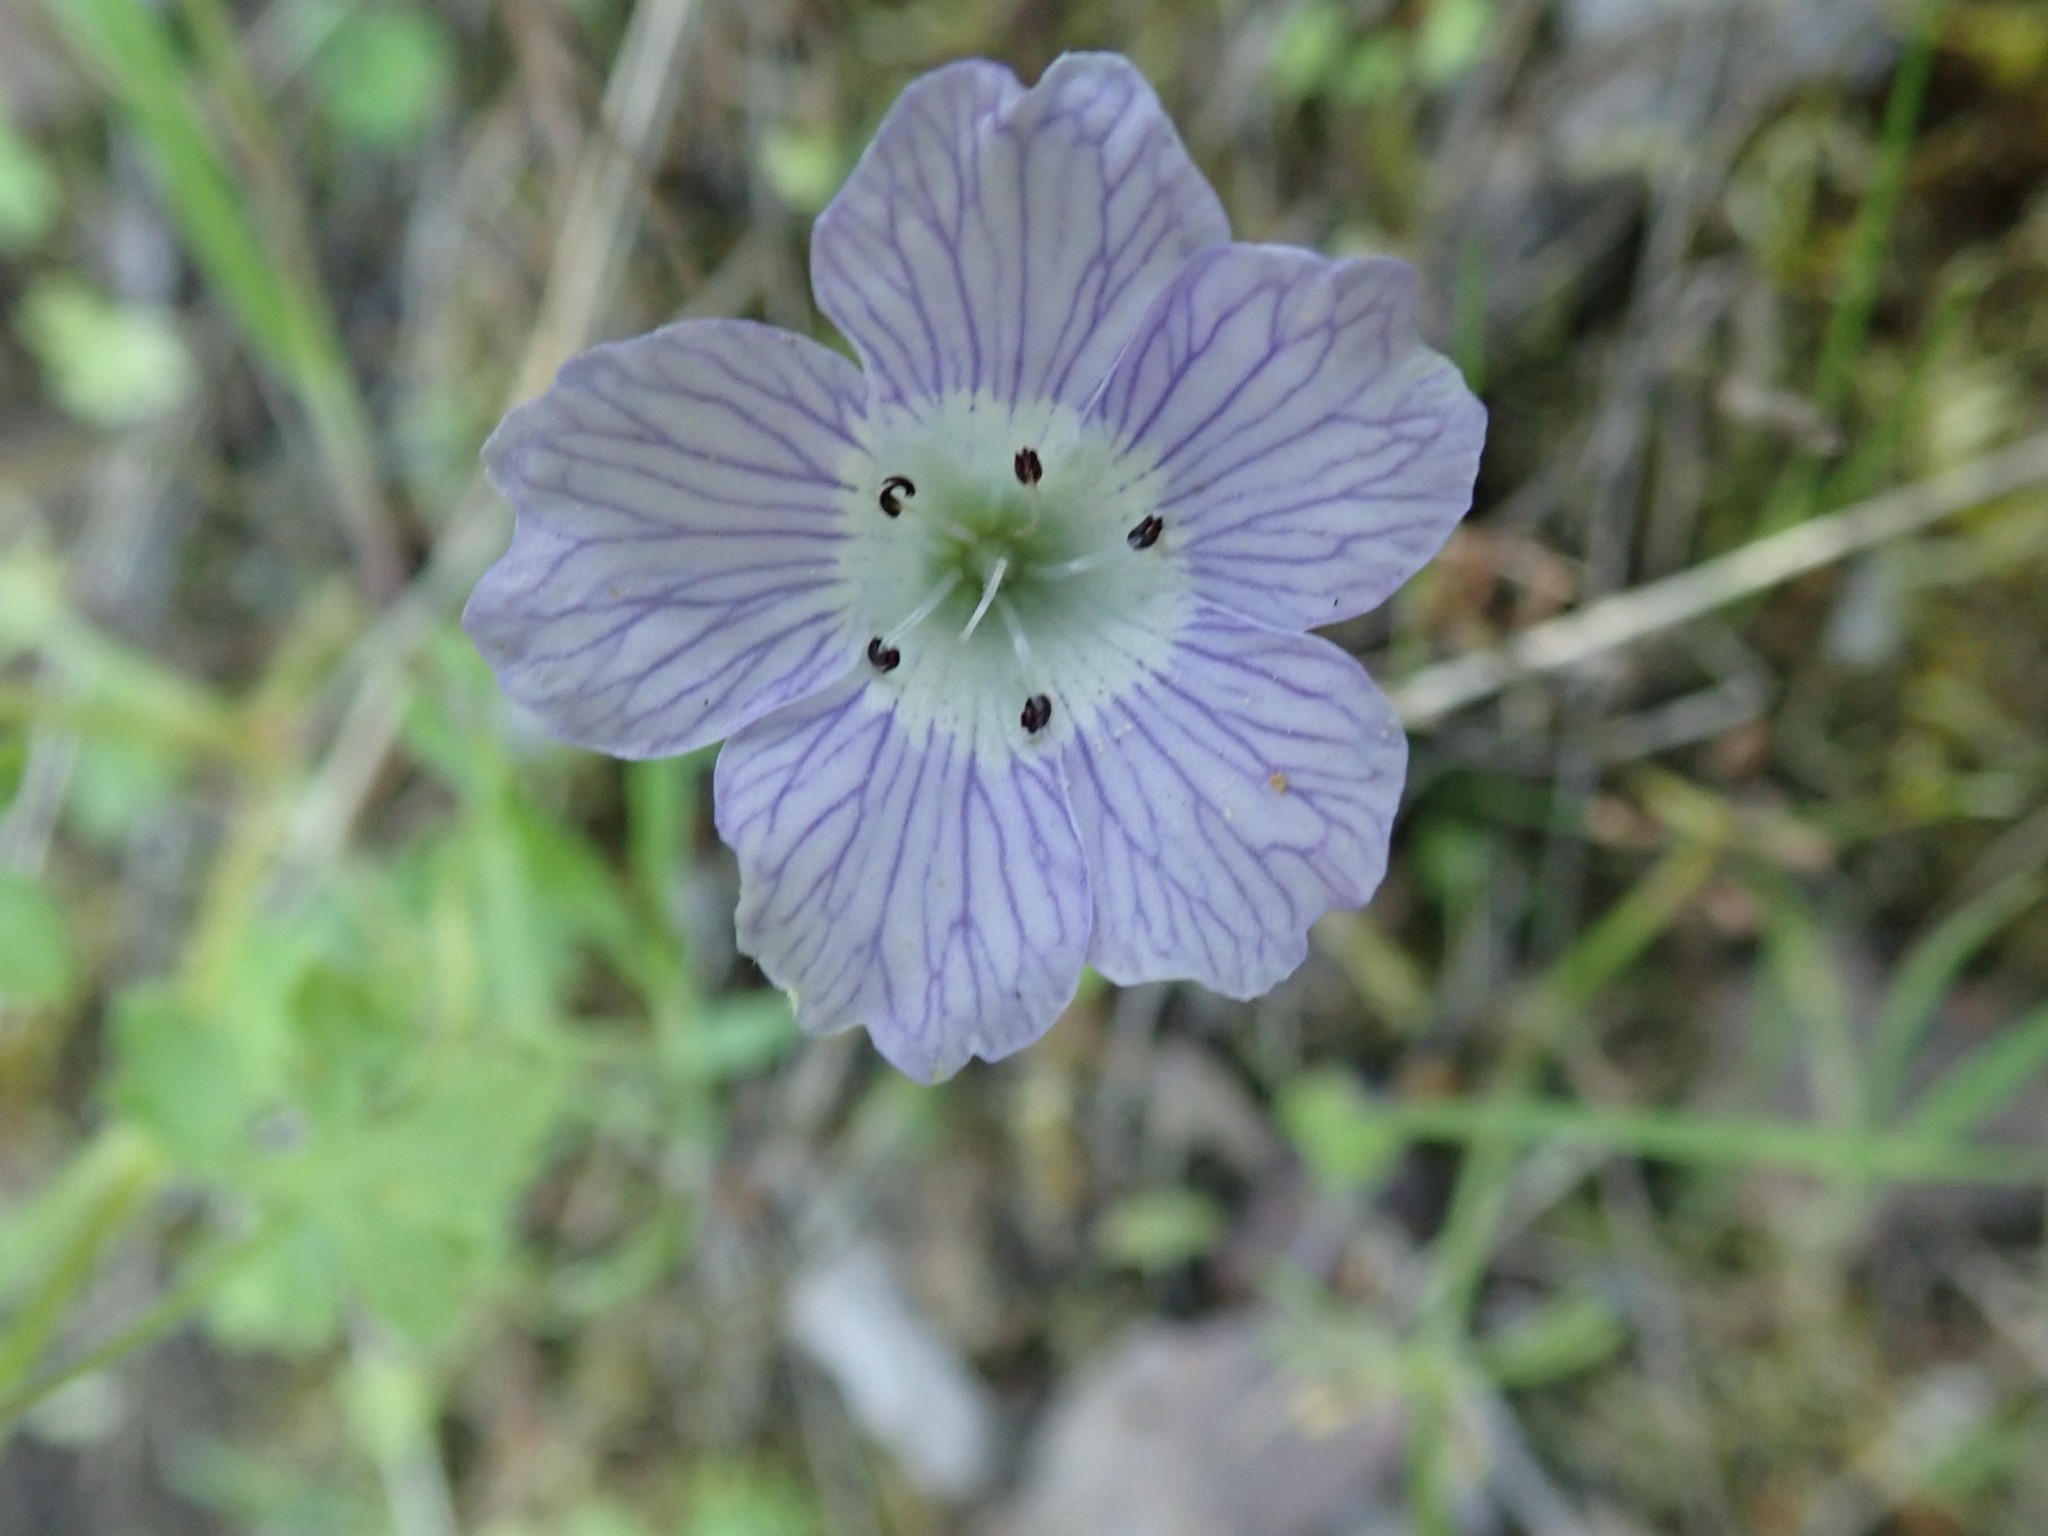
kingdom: Plantae
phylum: Tracheophyta
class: Magnoliopsida
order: Boraginales
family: Hydrophyllaceae
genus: Nemophila
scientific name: Nemophila menziesii
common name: Baby's-blue-eyes
